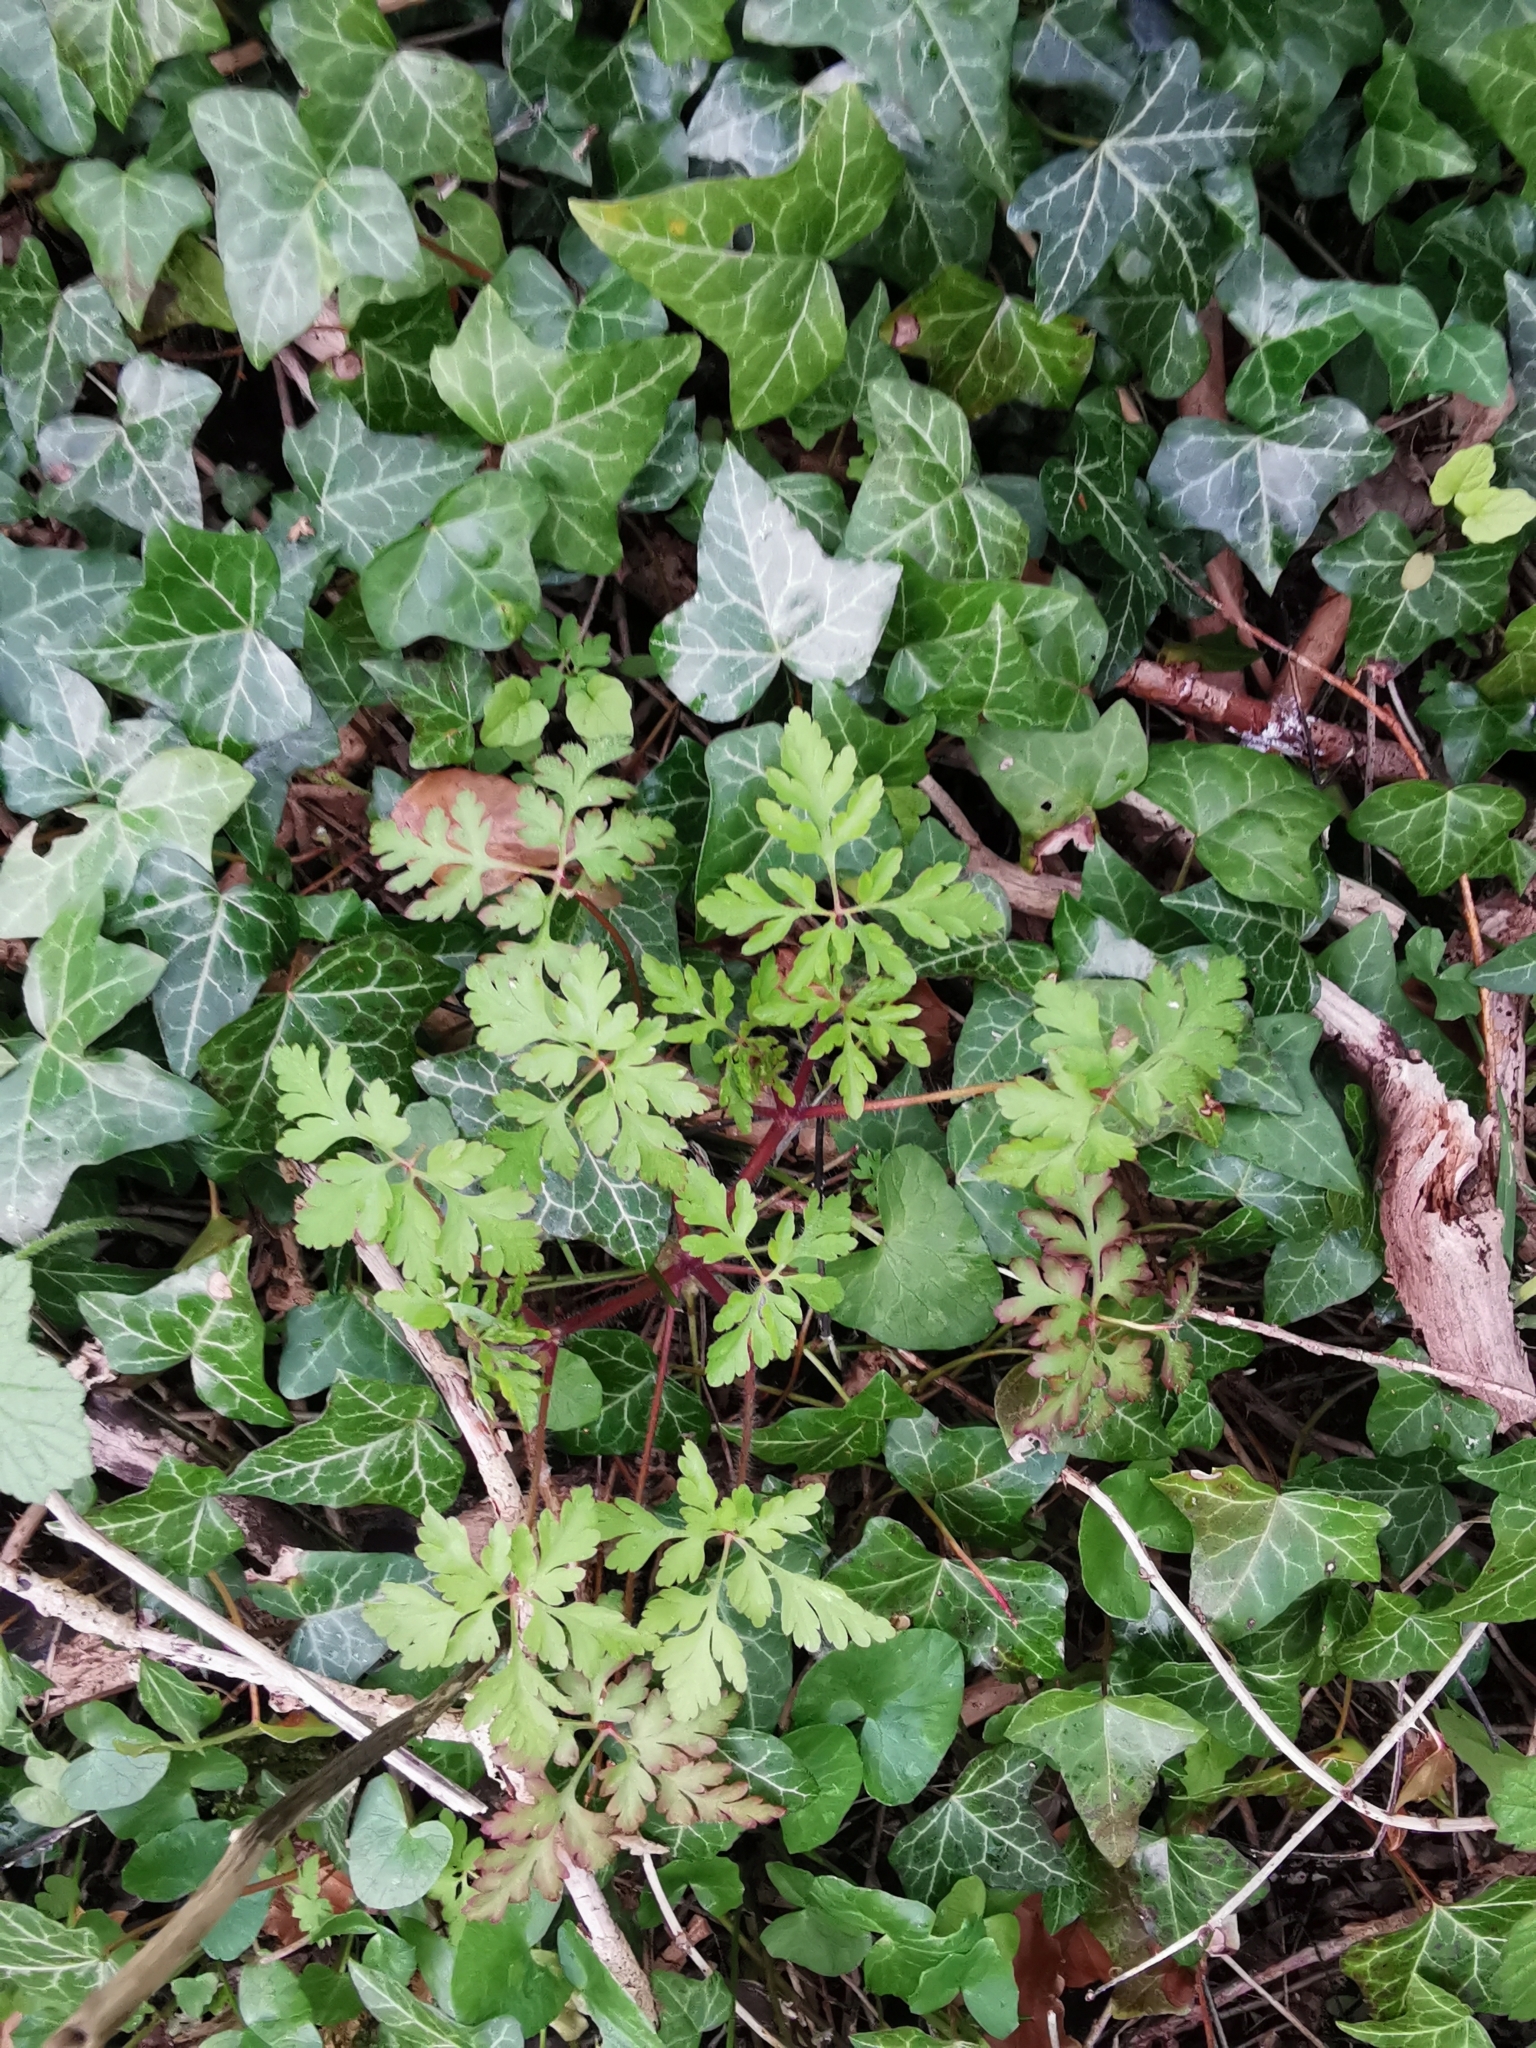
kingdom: Plantae
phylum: Tracheophyta
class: Magnoliopsida
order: Geraniales
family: Geraniaceae
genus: Geranium
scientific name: Geranium robertianum
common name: Herb-robert
